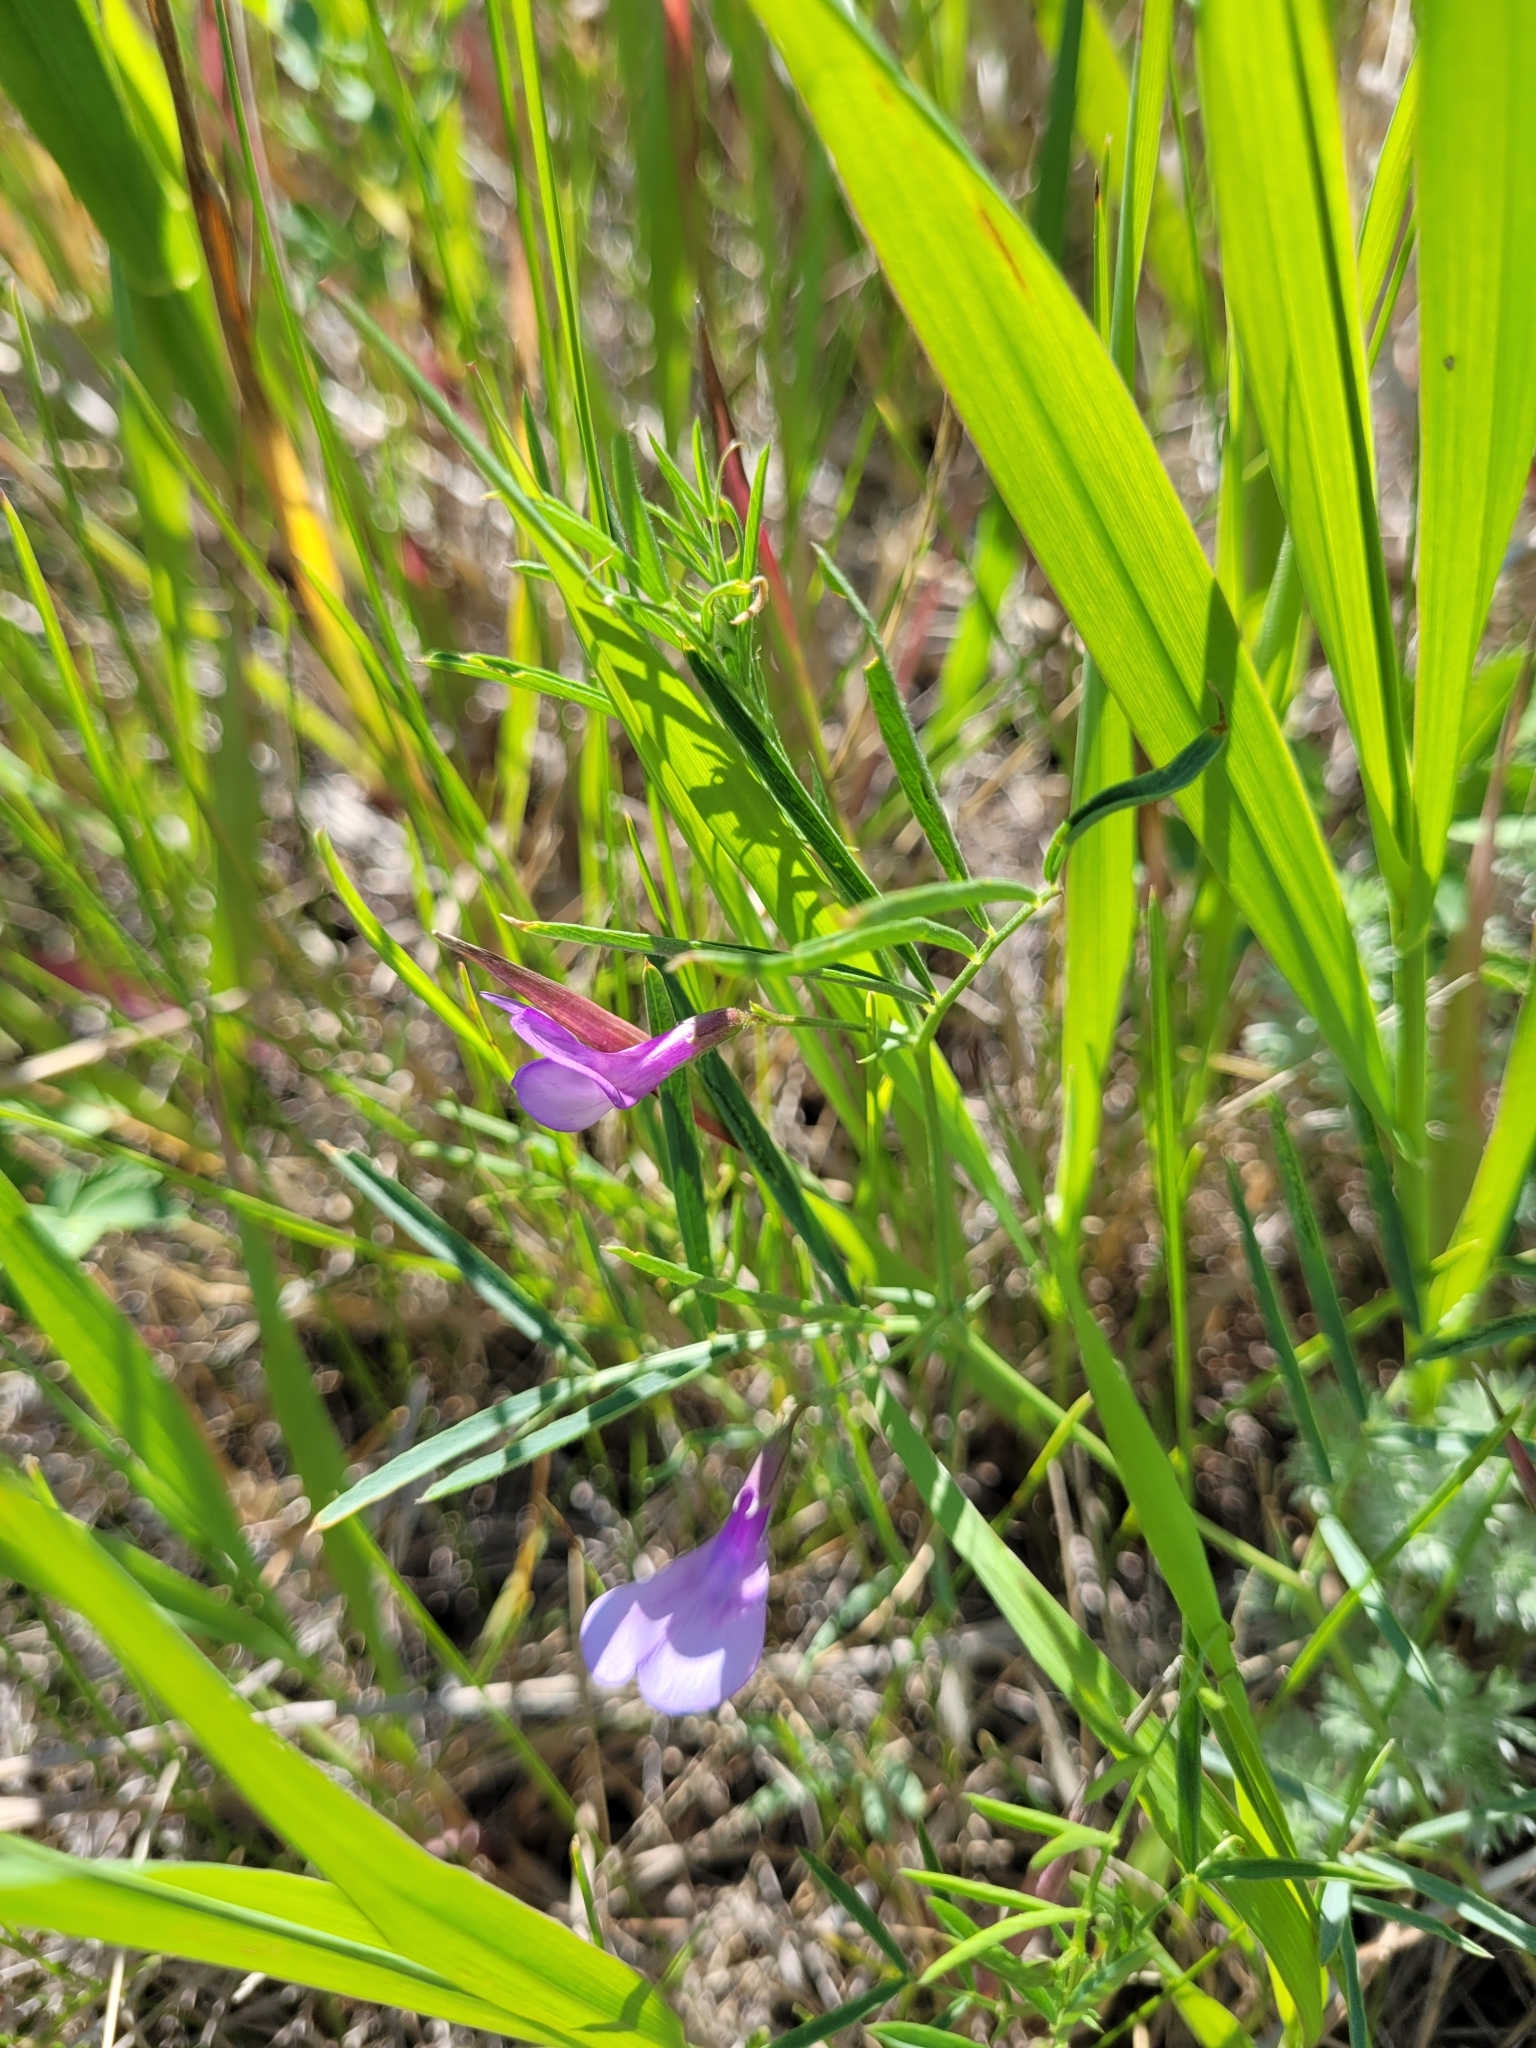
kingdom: Plantae
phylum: Tracheophyta
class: Magnoliopsida
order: Fabales
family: Fabaceae
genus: Vicia
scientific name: Vicia americana
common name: American vetch
